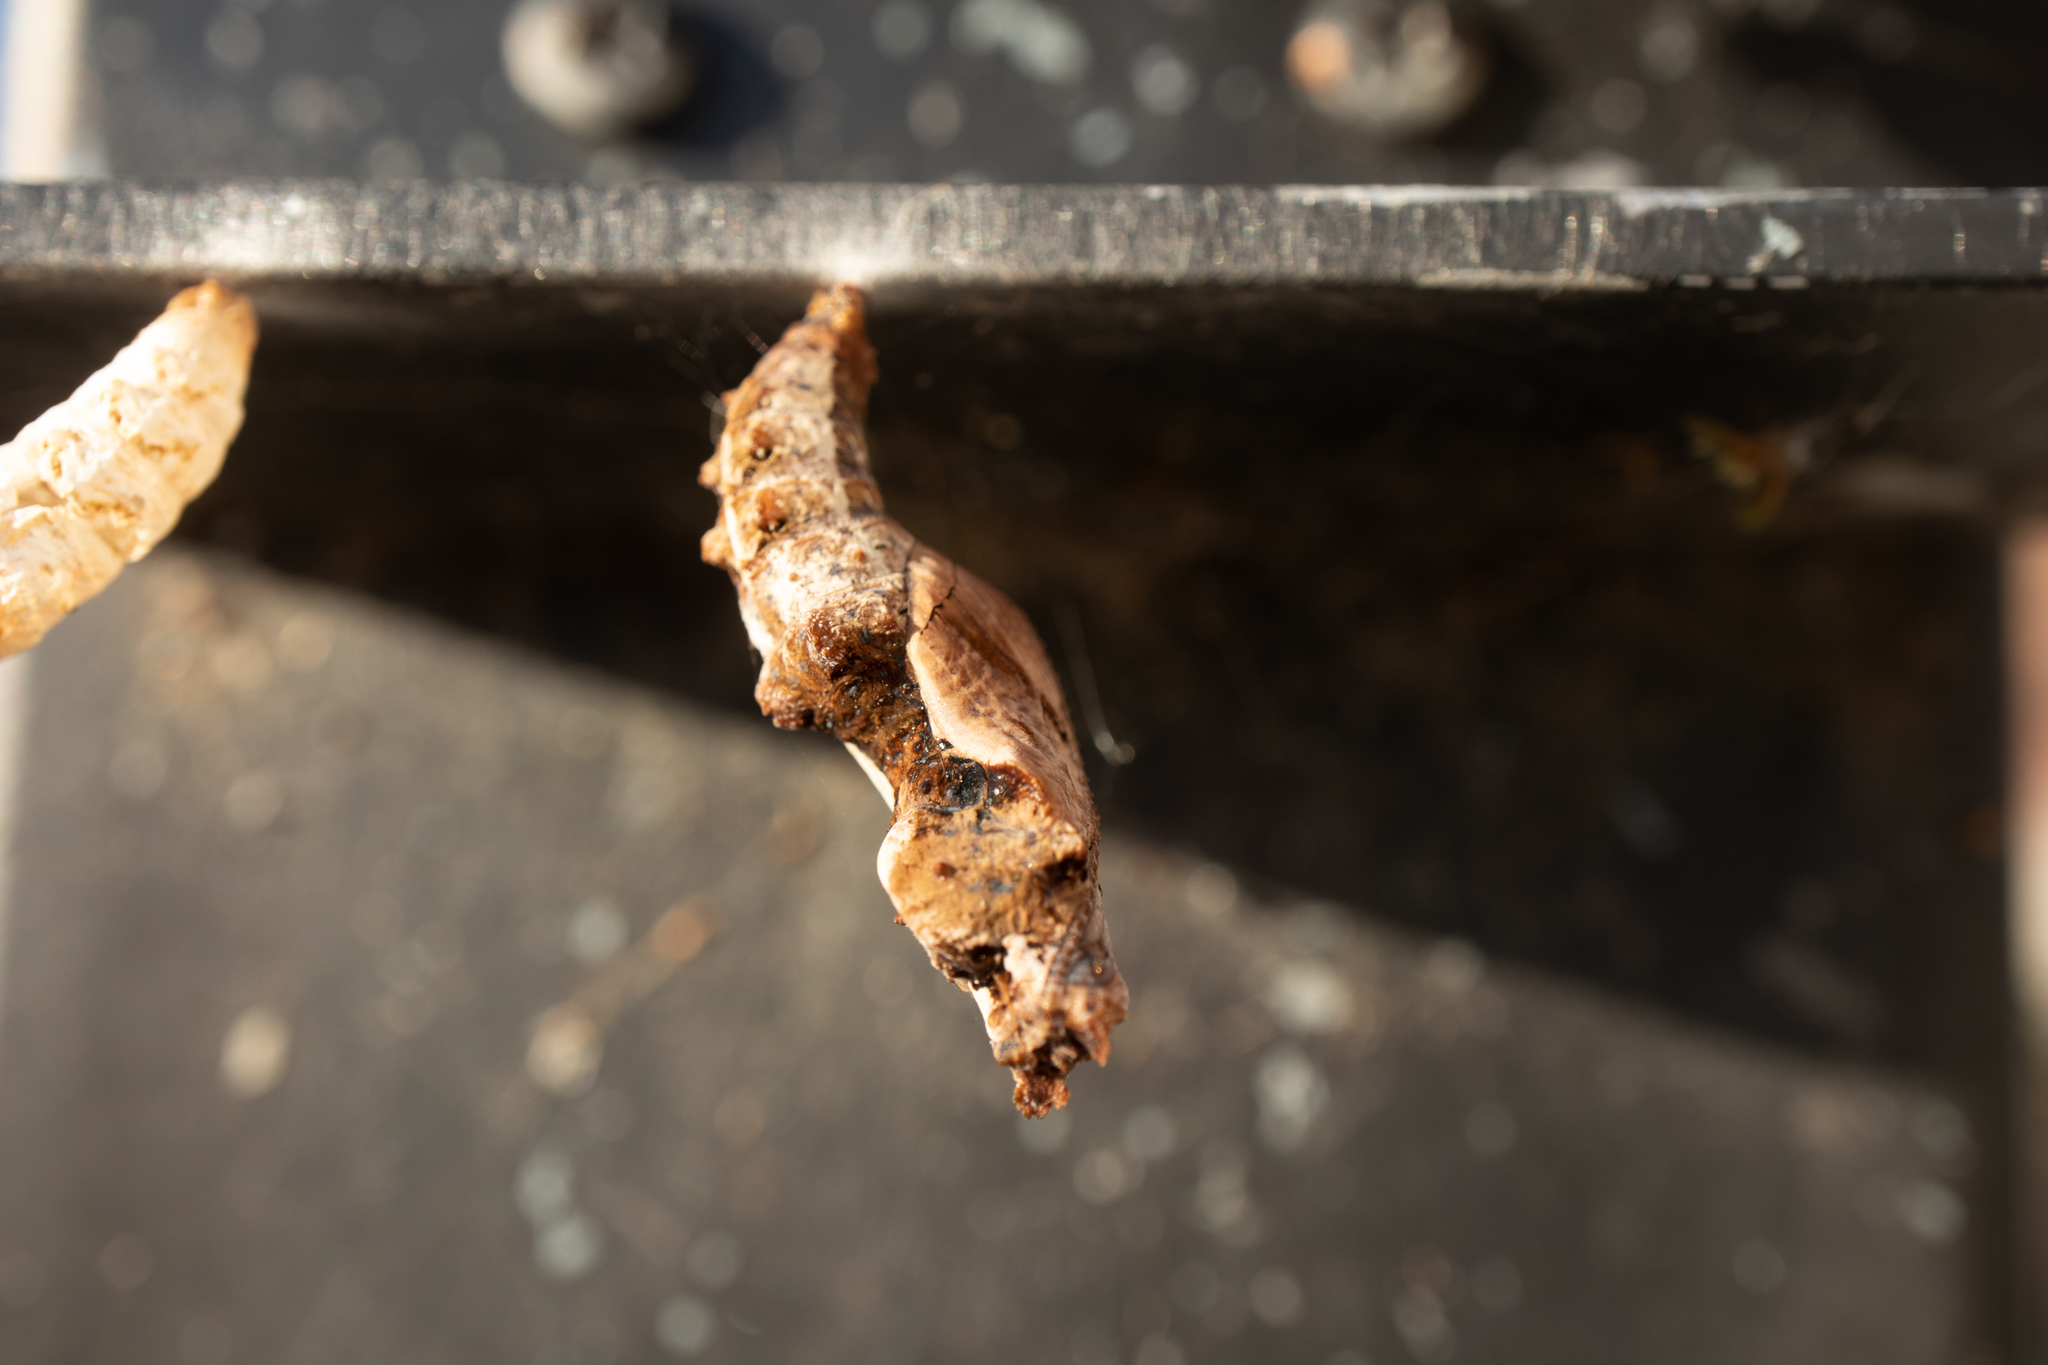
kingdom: Animalia
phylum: Arthropoda
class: Insecta
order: Lepidoptera
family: Nymphalidae
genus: Dione
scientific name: Dione vanillae
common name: Gulf fritillary
